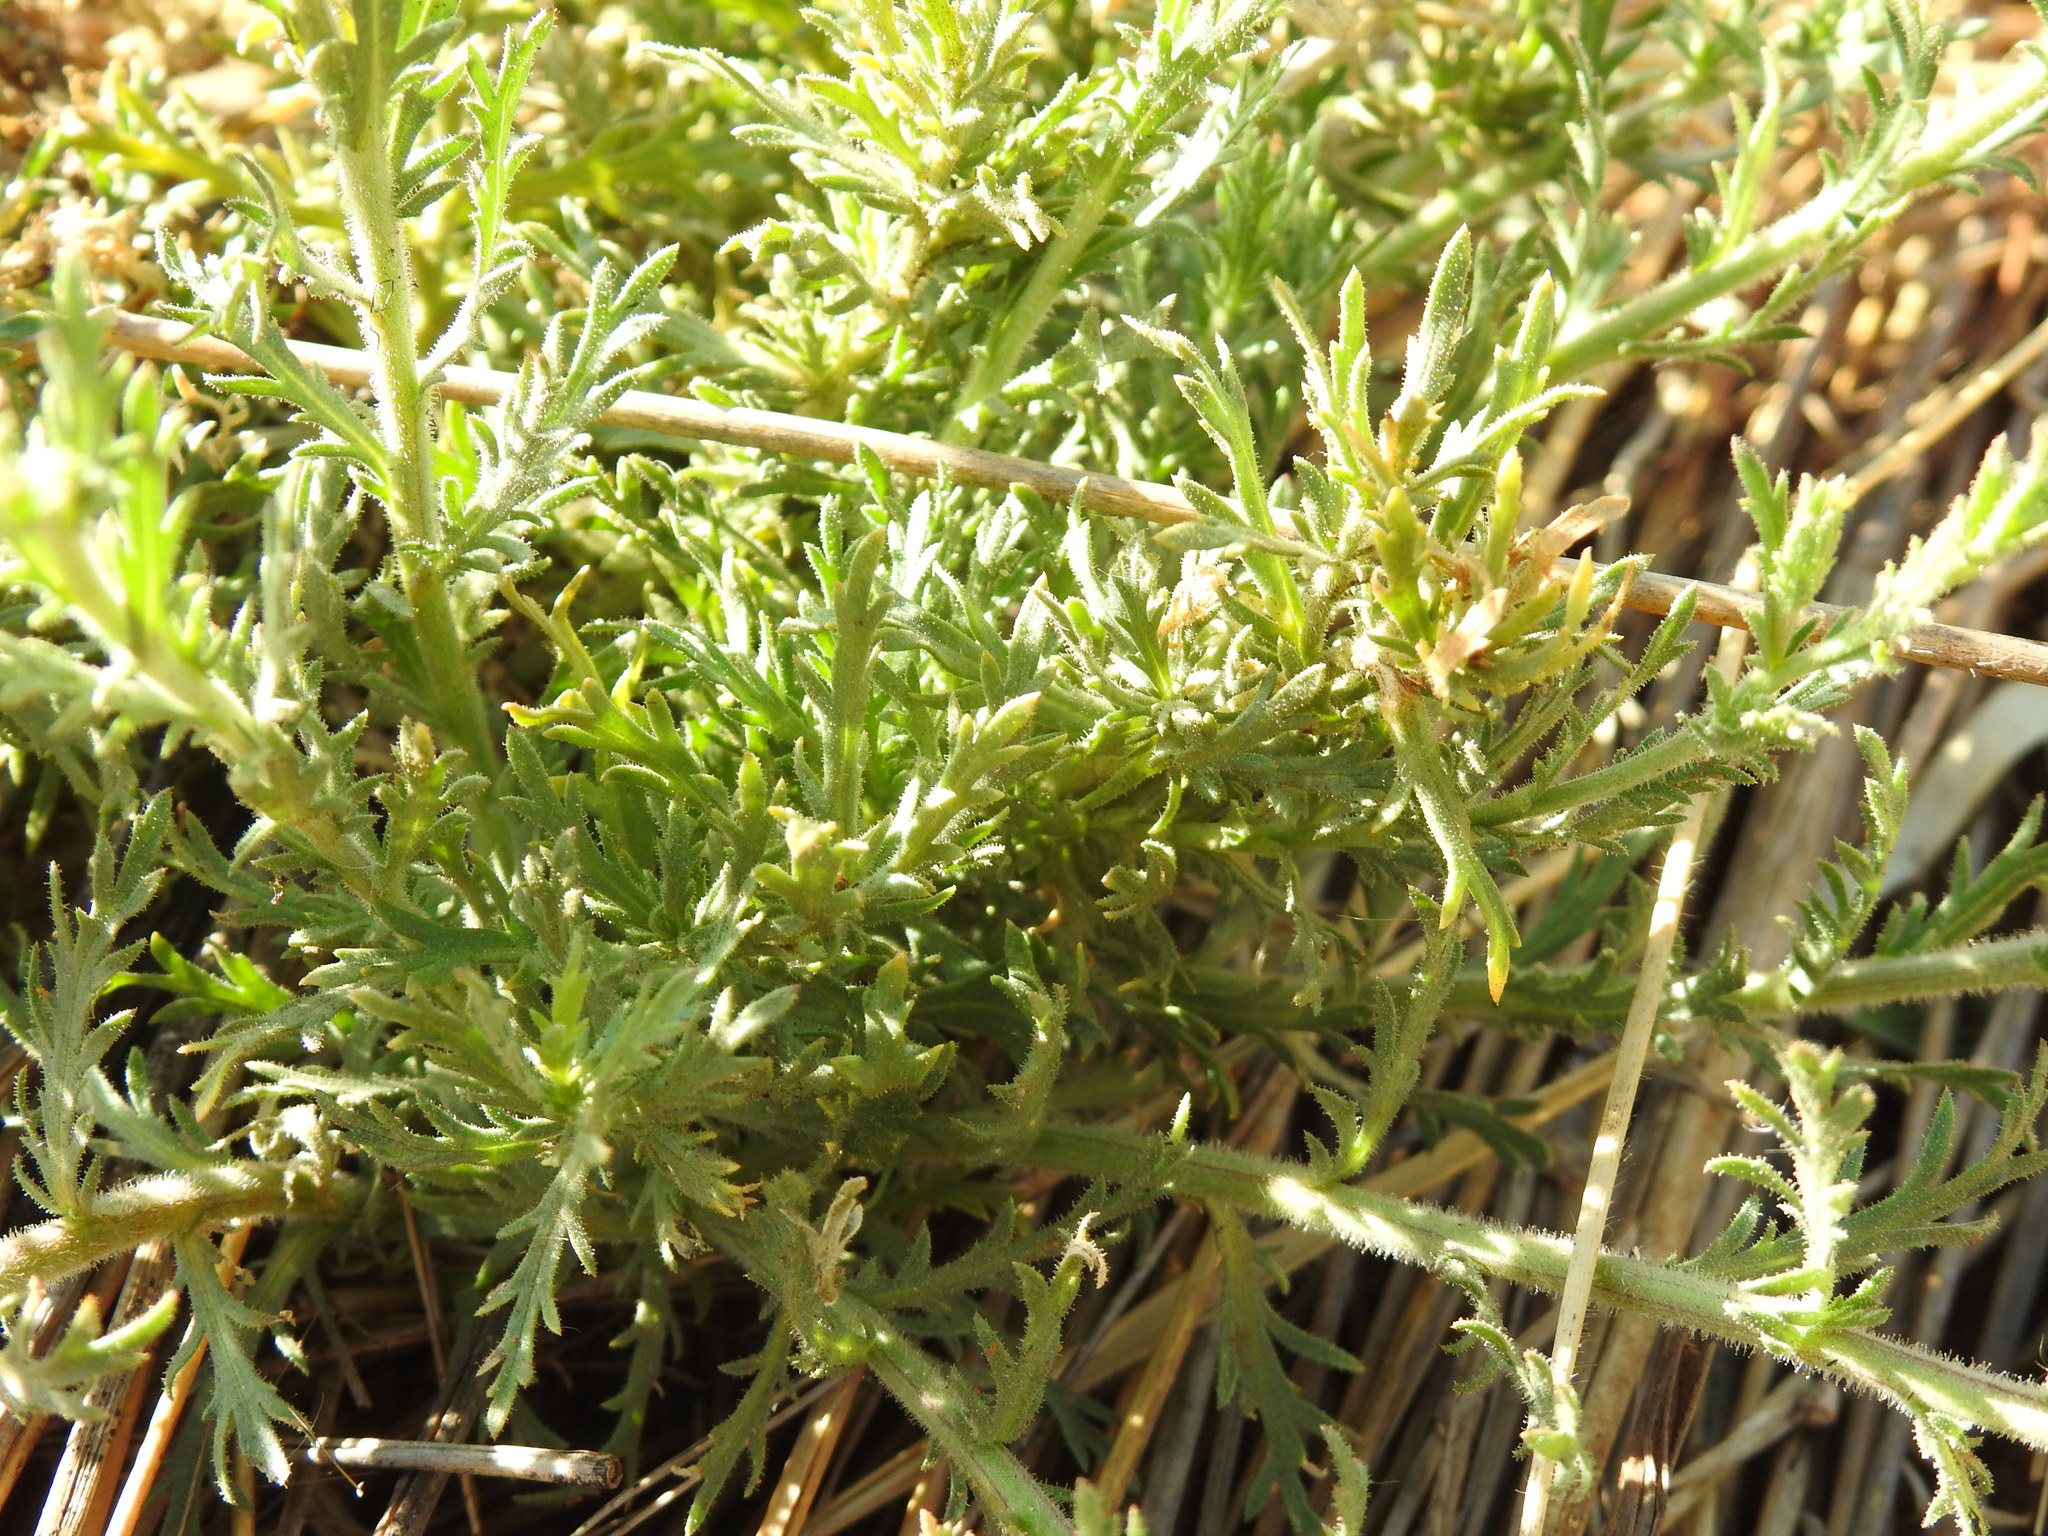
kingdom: Plantae
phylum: Tracheophyta
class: Magnoliopsida
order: Asterales
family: Asteraceae
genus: Osteospermum
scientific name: Osteospermum muricatum
